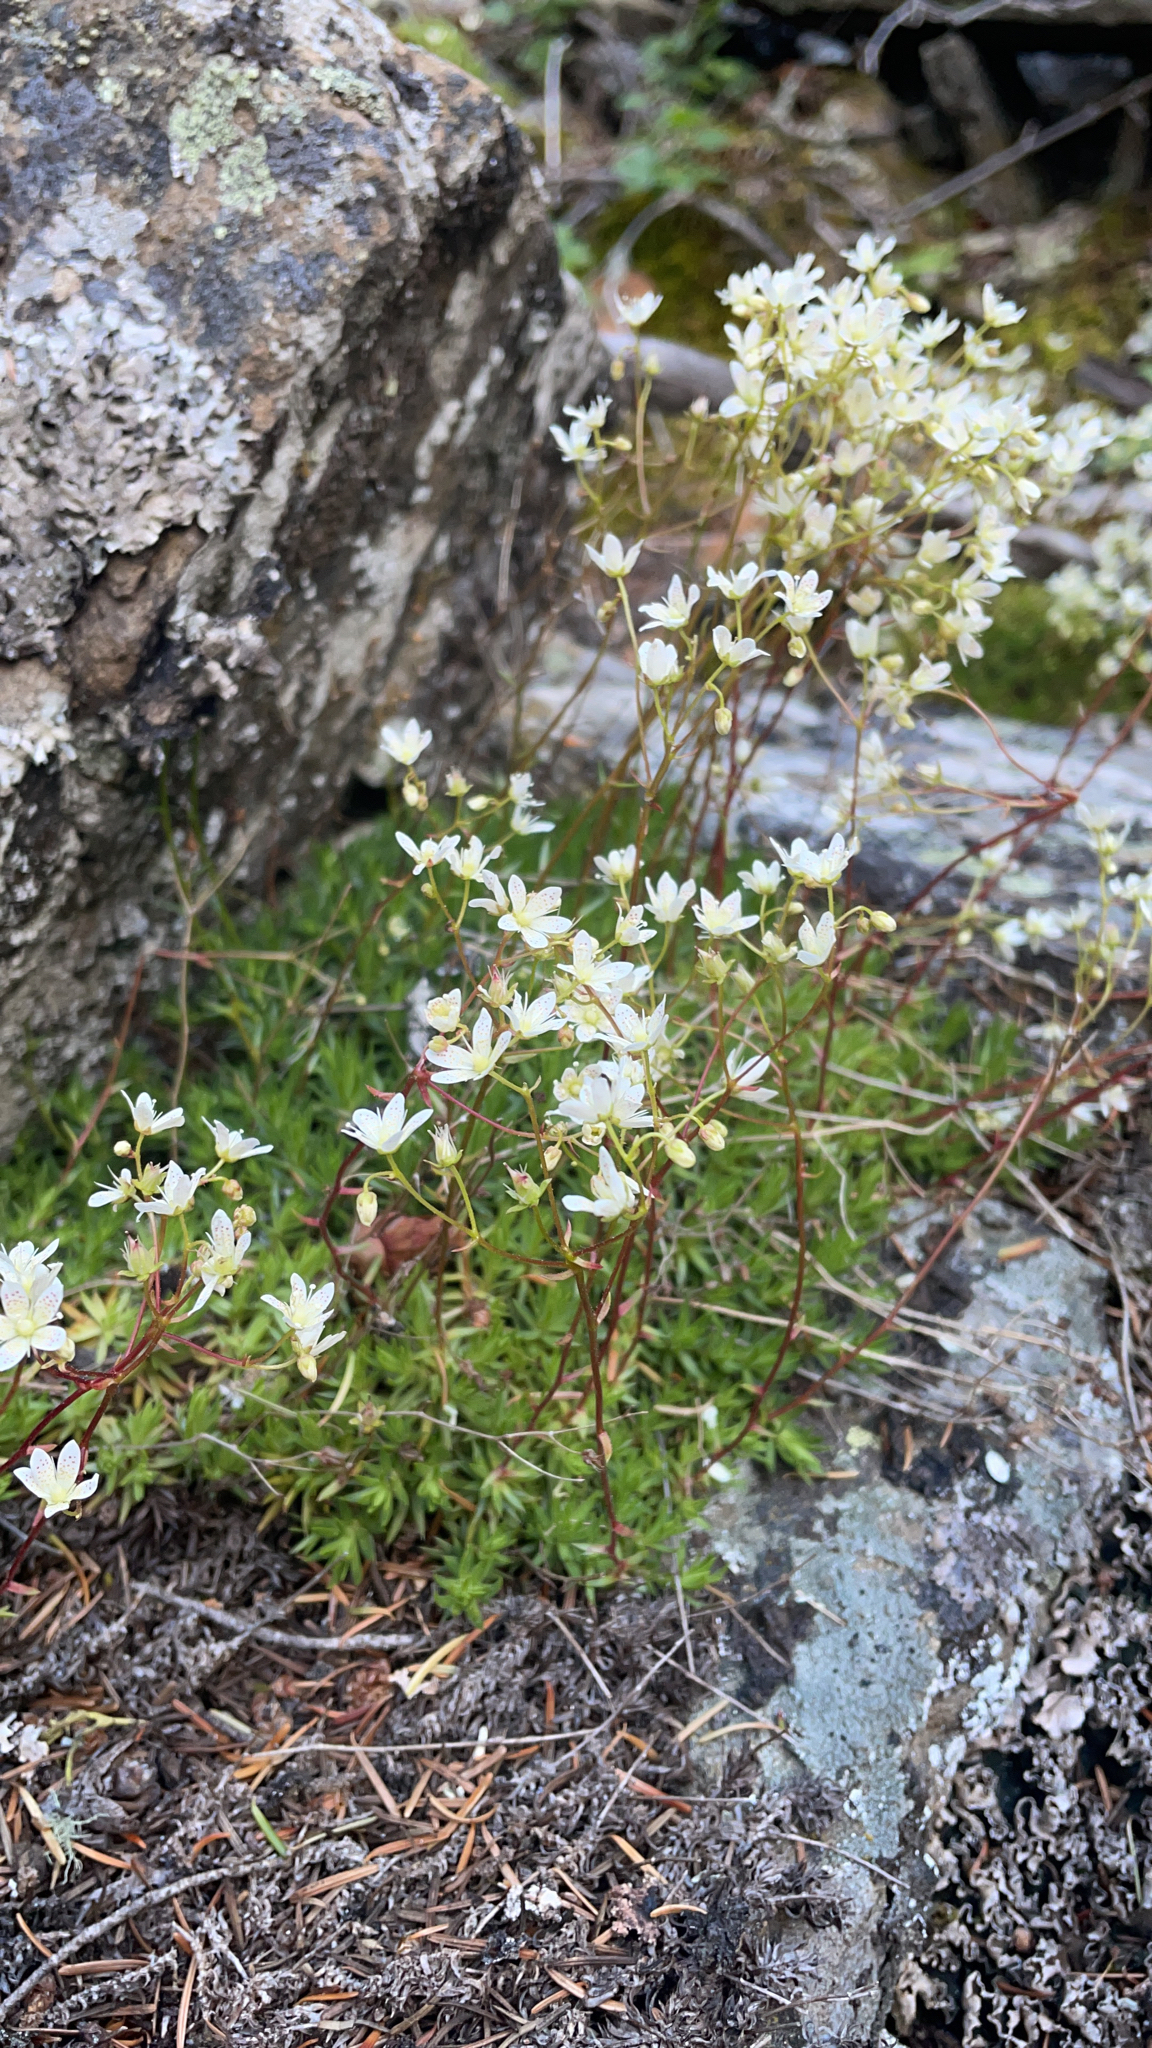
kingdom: Plantae
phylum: Tracheophyta
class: Magnoliopsida
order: Saxifragales
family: Saxifragaceae
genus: Saxifraga
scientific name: Saxifraga bronchialis
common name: Matted saxifrage
